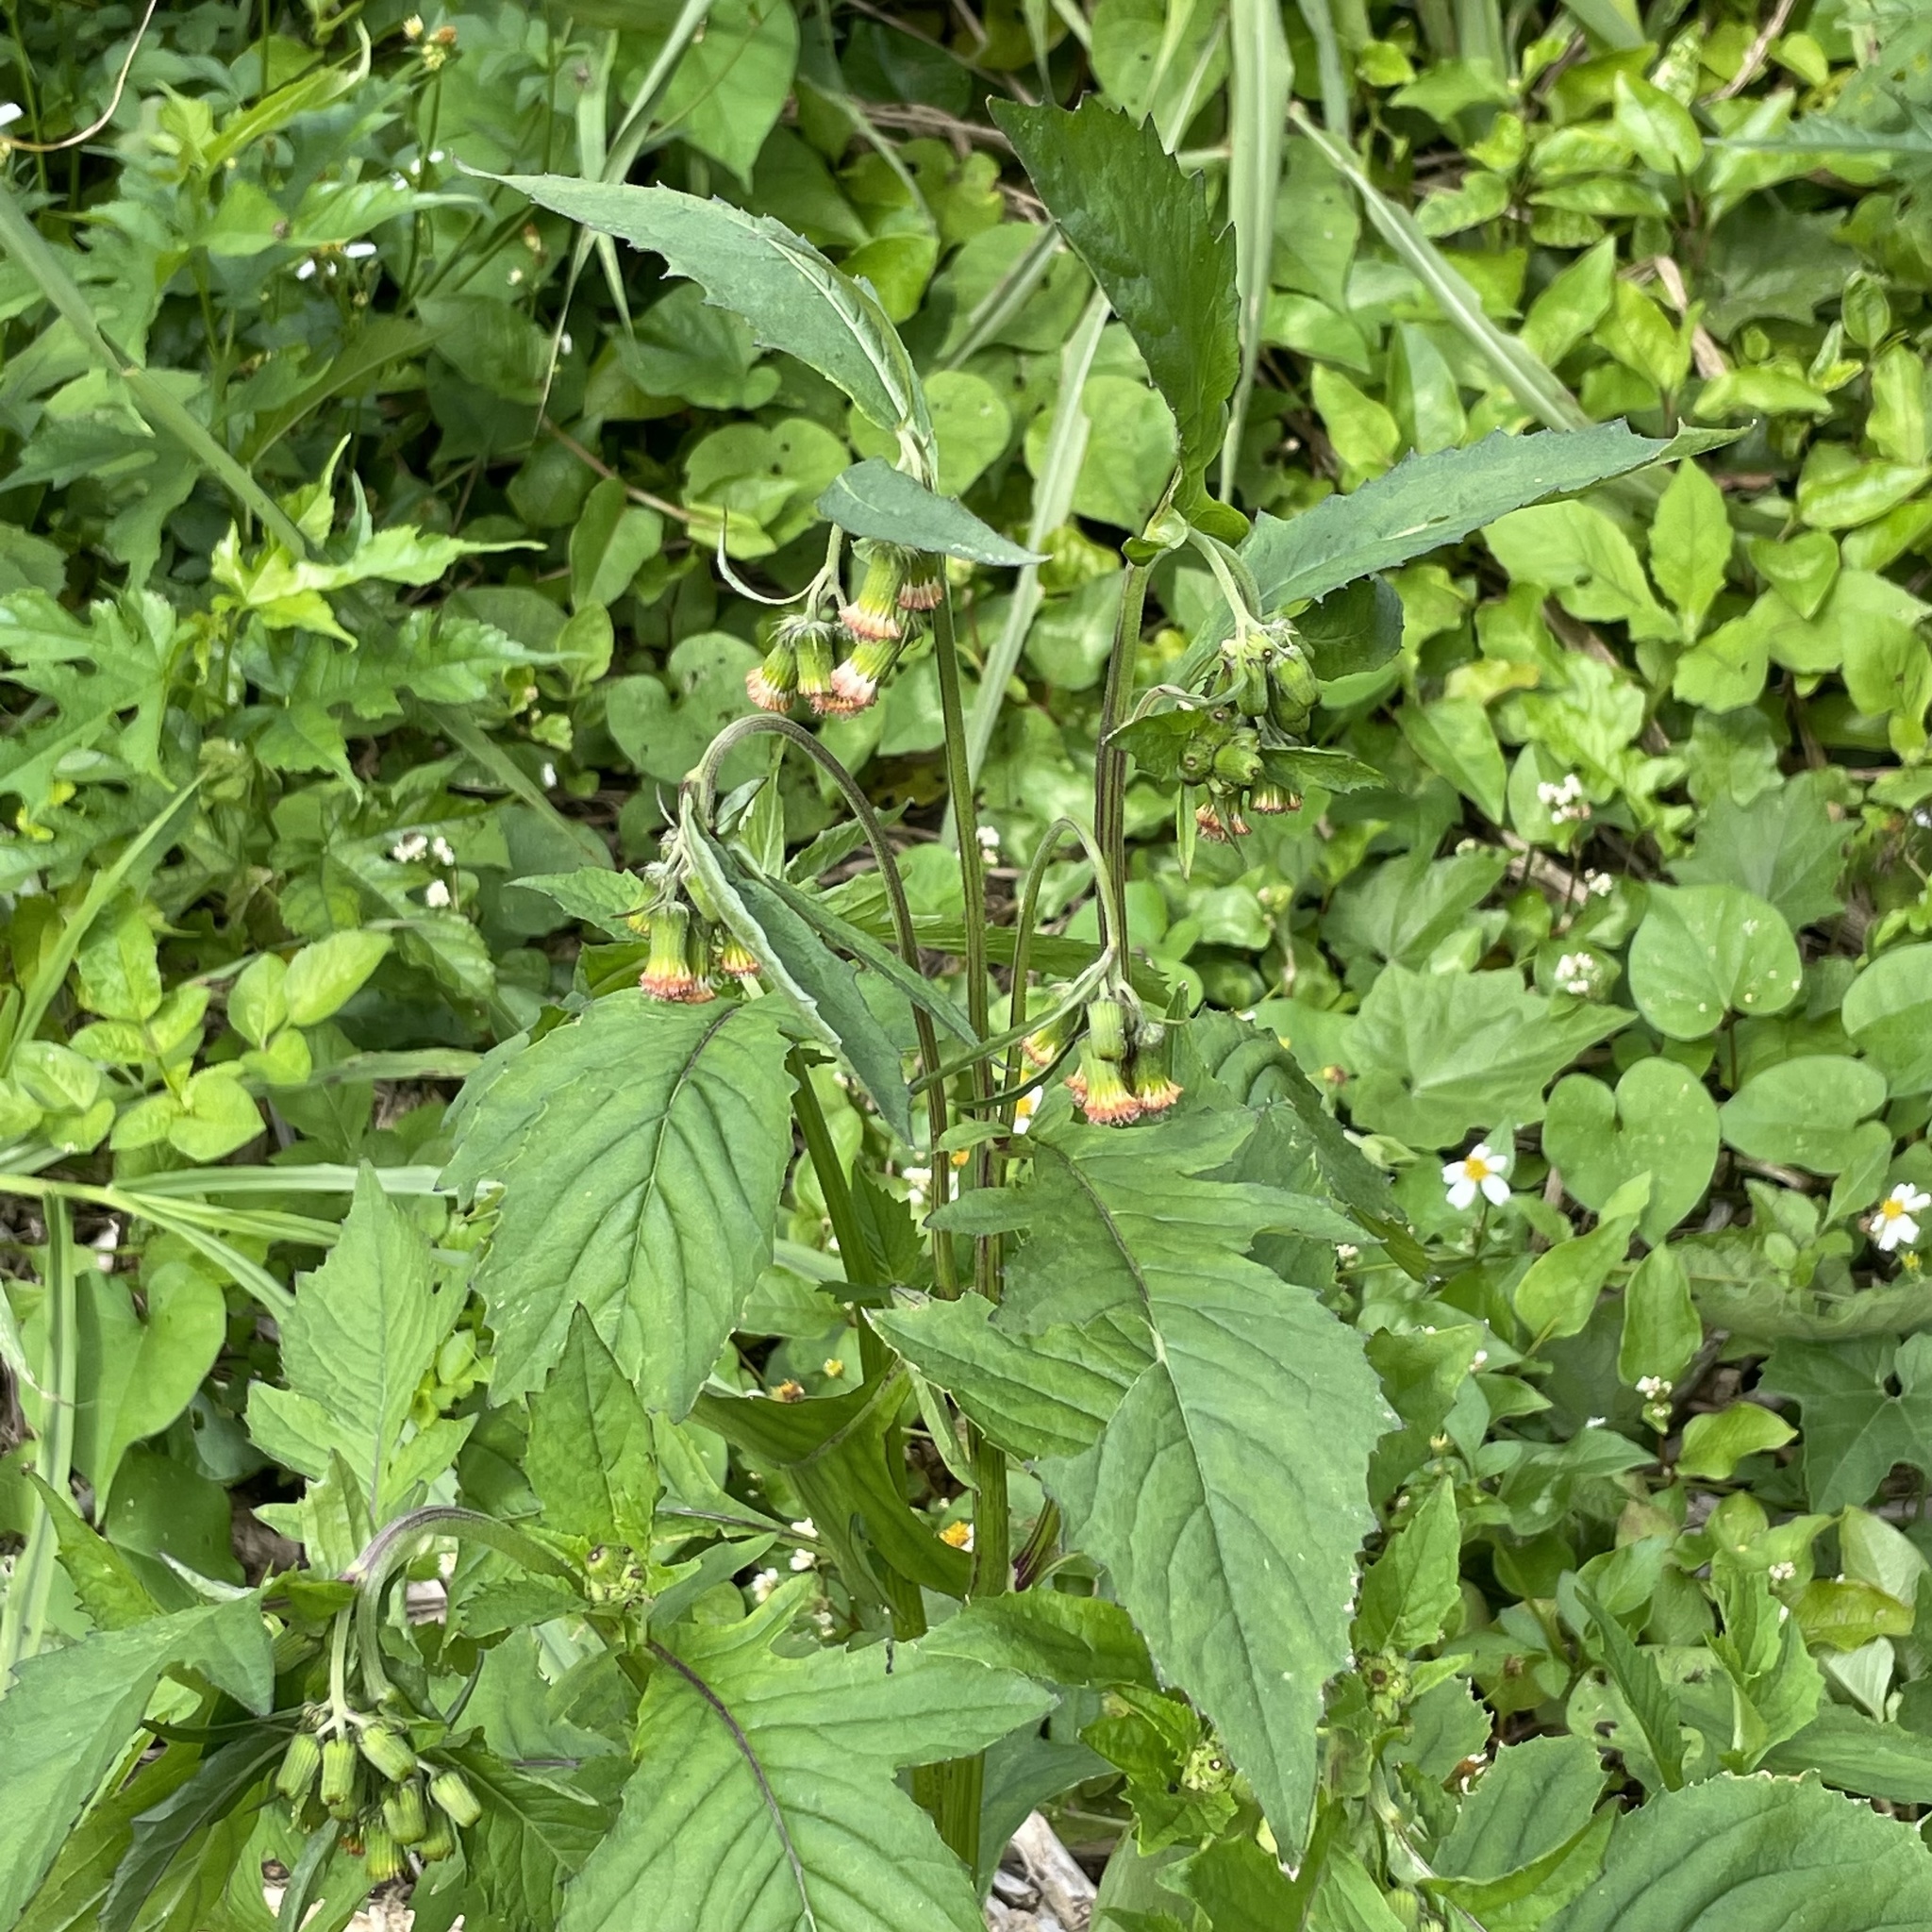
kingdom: Plantae
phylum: Tracheophyta
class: Magnoliopsida
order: Asterales
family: Asteraceae
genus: Crassocephalum
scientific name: Crassocephalum crepidioides
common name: Redflower ragleaf
